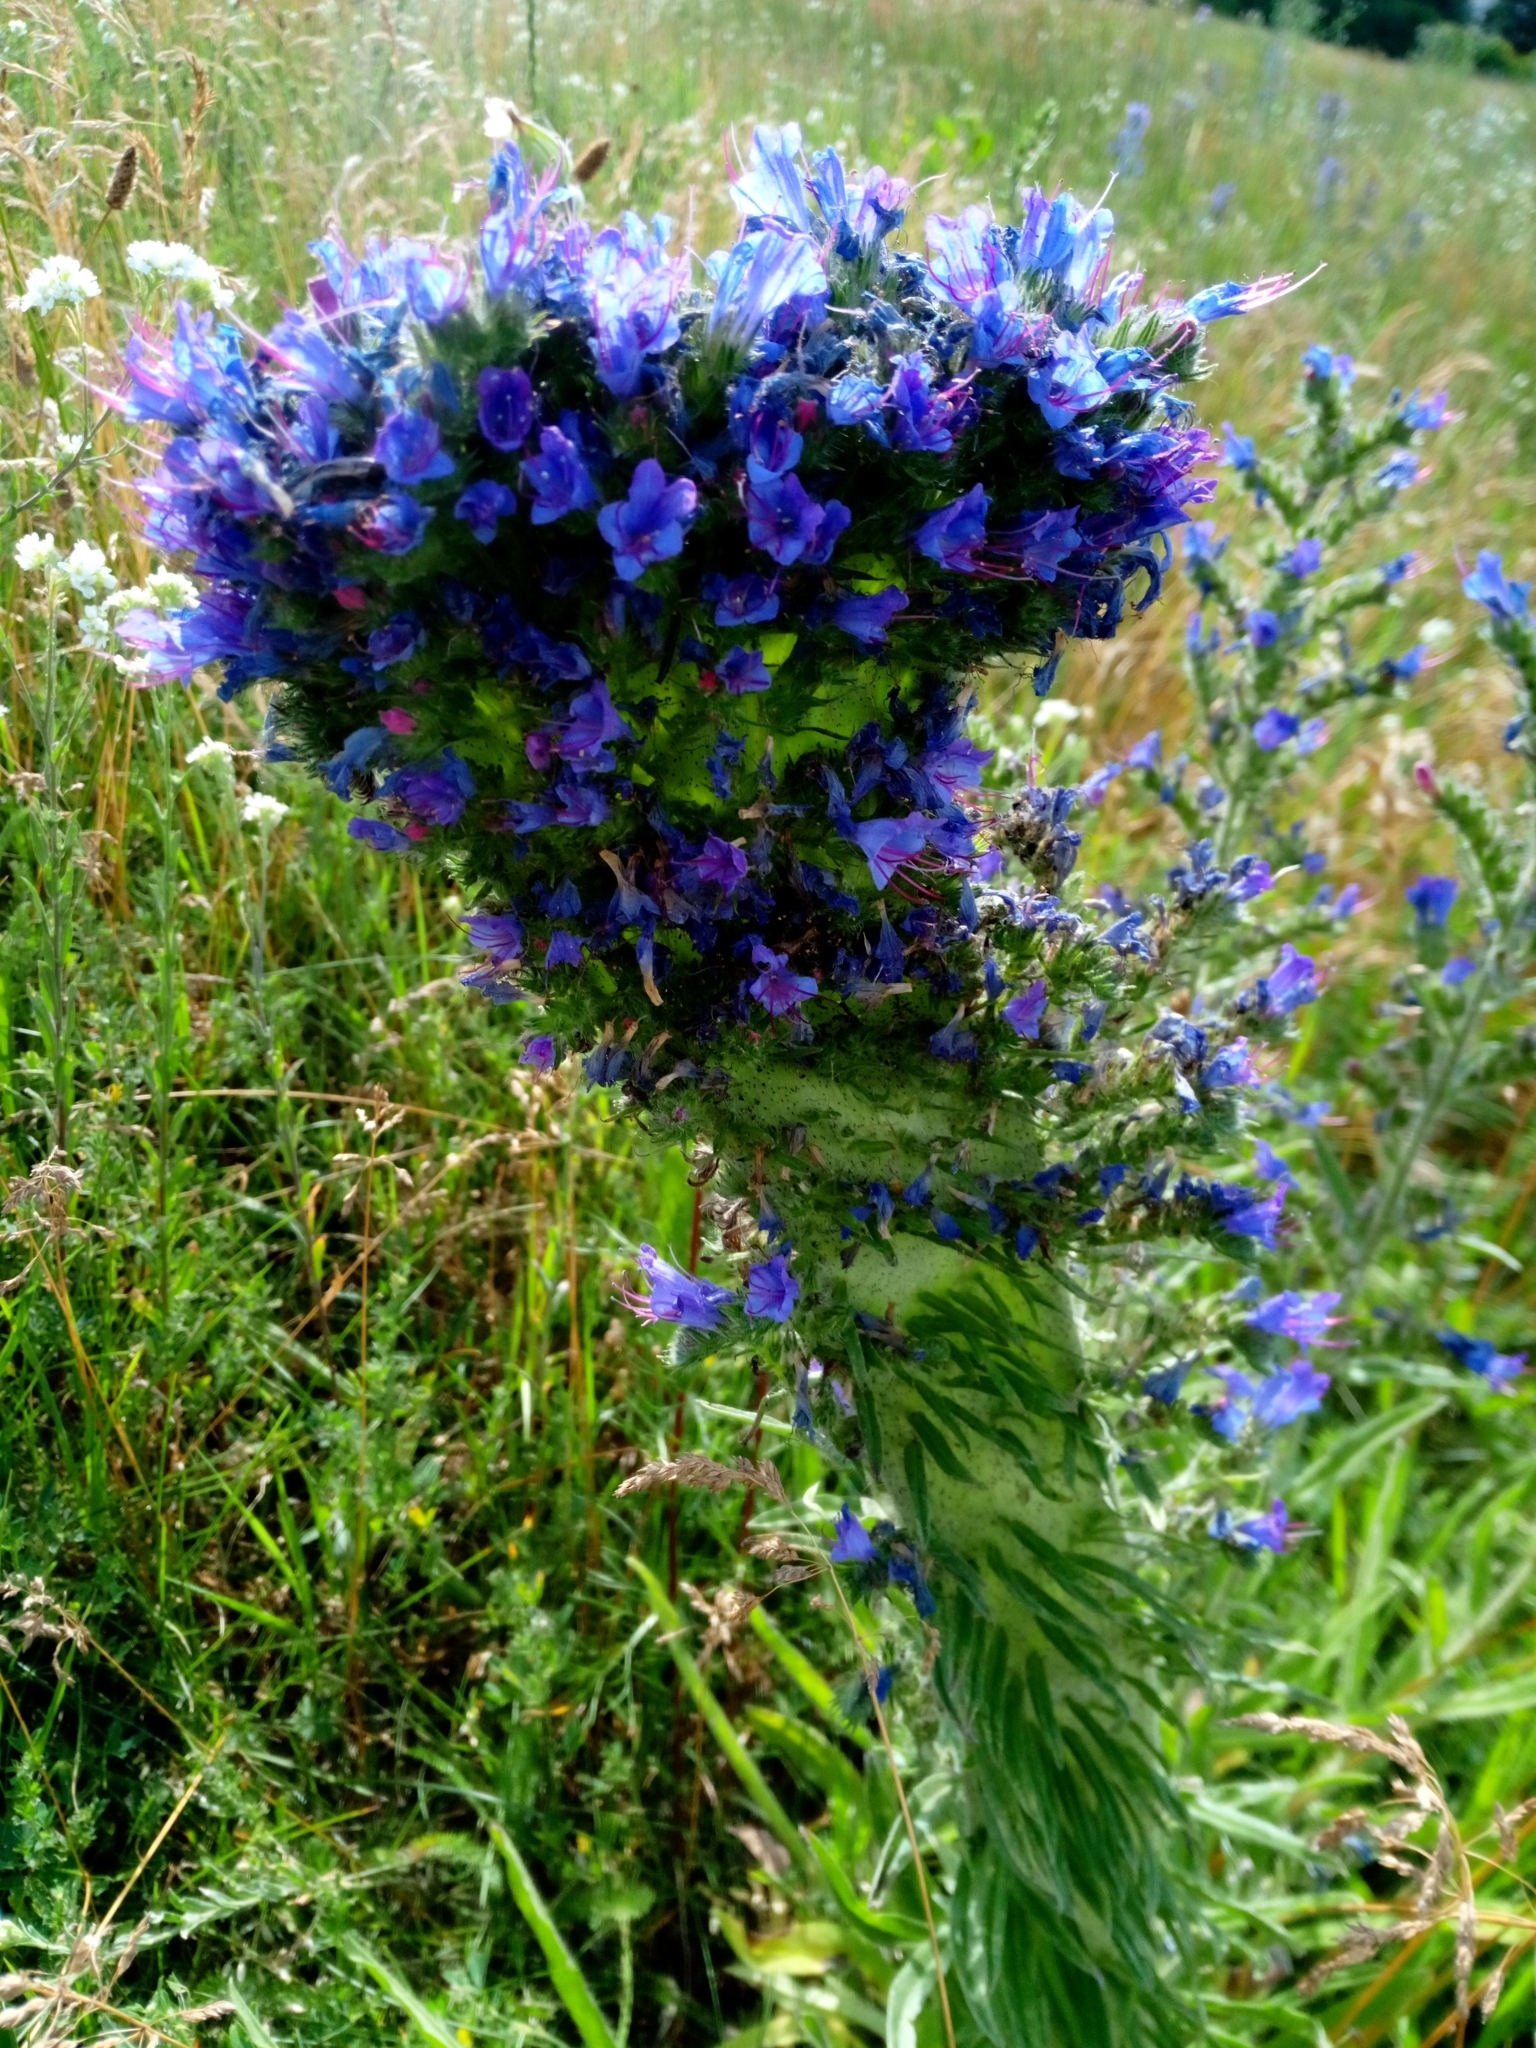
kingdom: Plantae
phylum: Tracheophyta
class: Magnoliopsida
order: Boraginales
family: Boraginaceae
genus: Echium
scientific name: Echium vulgare
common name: Common viper's bugloss
